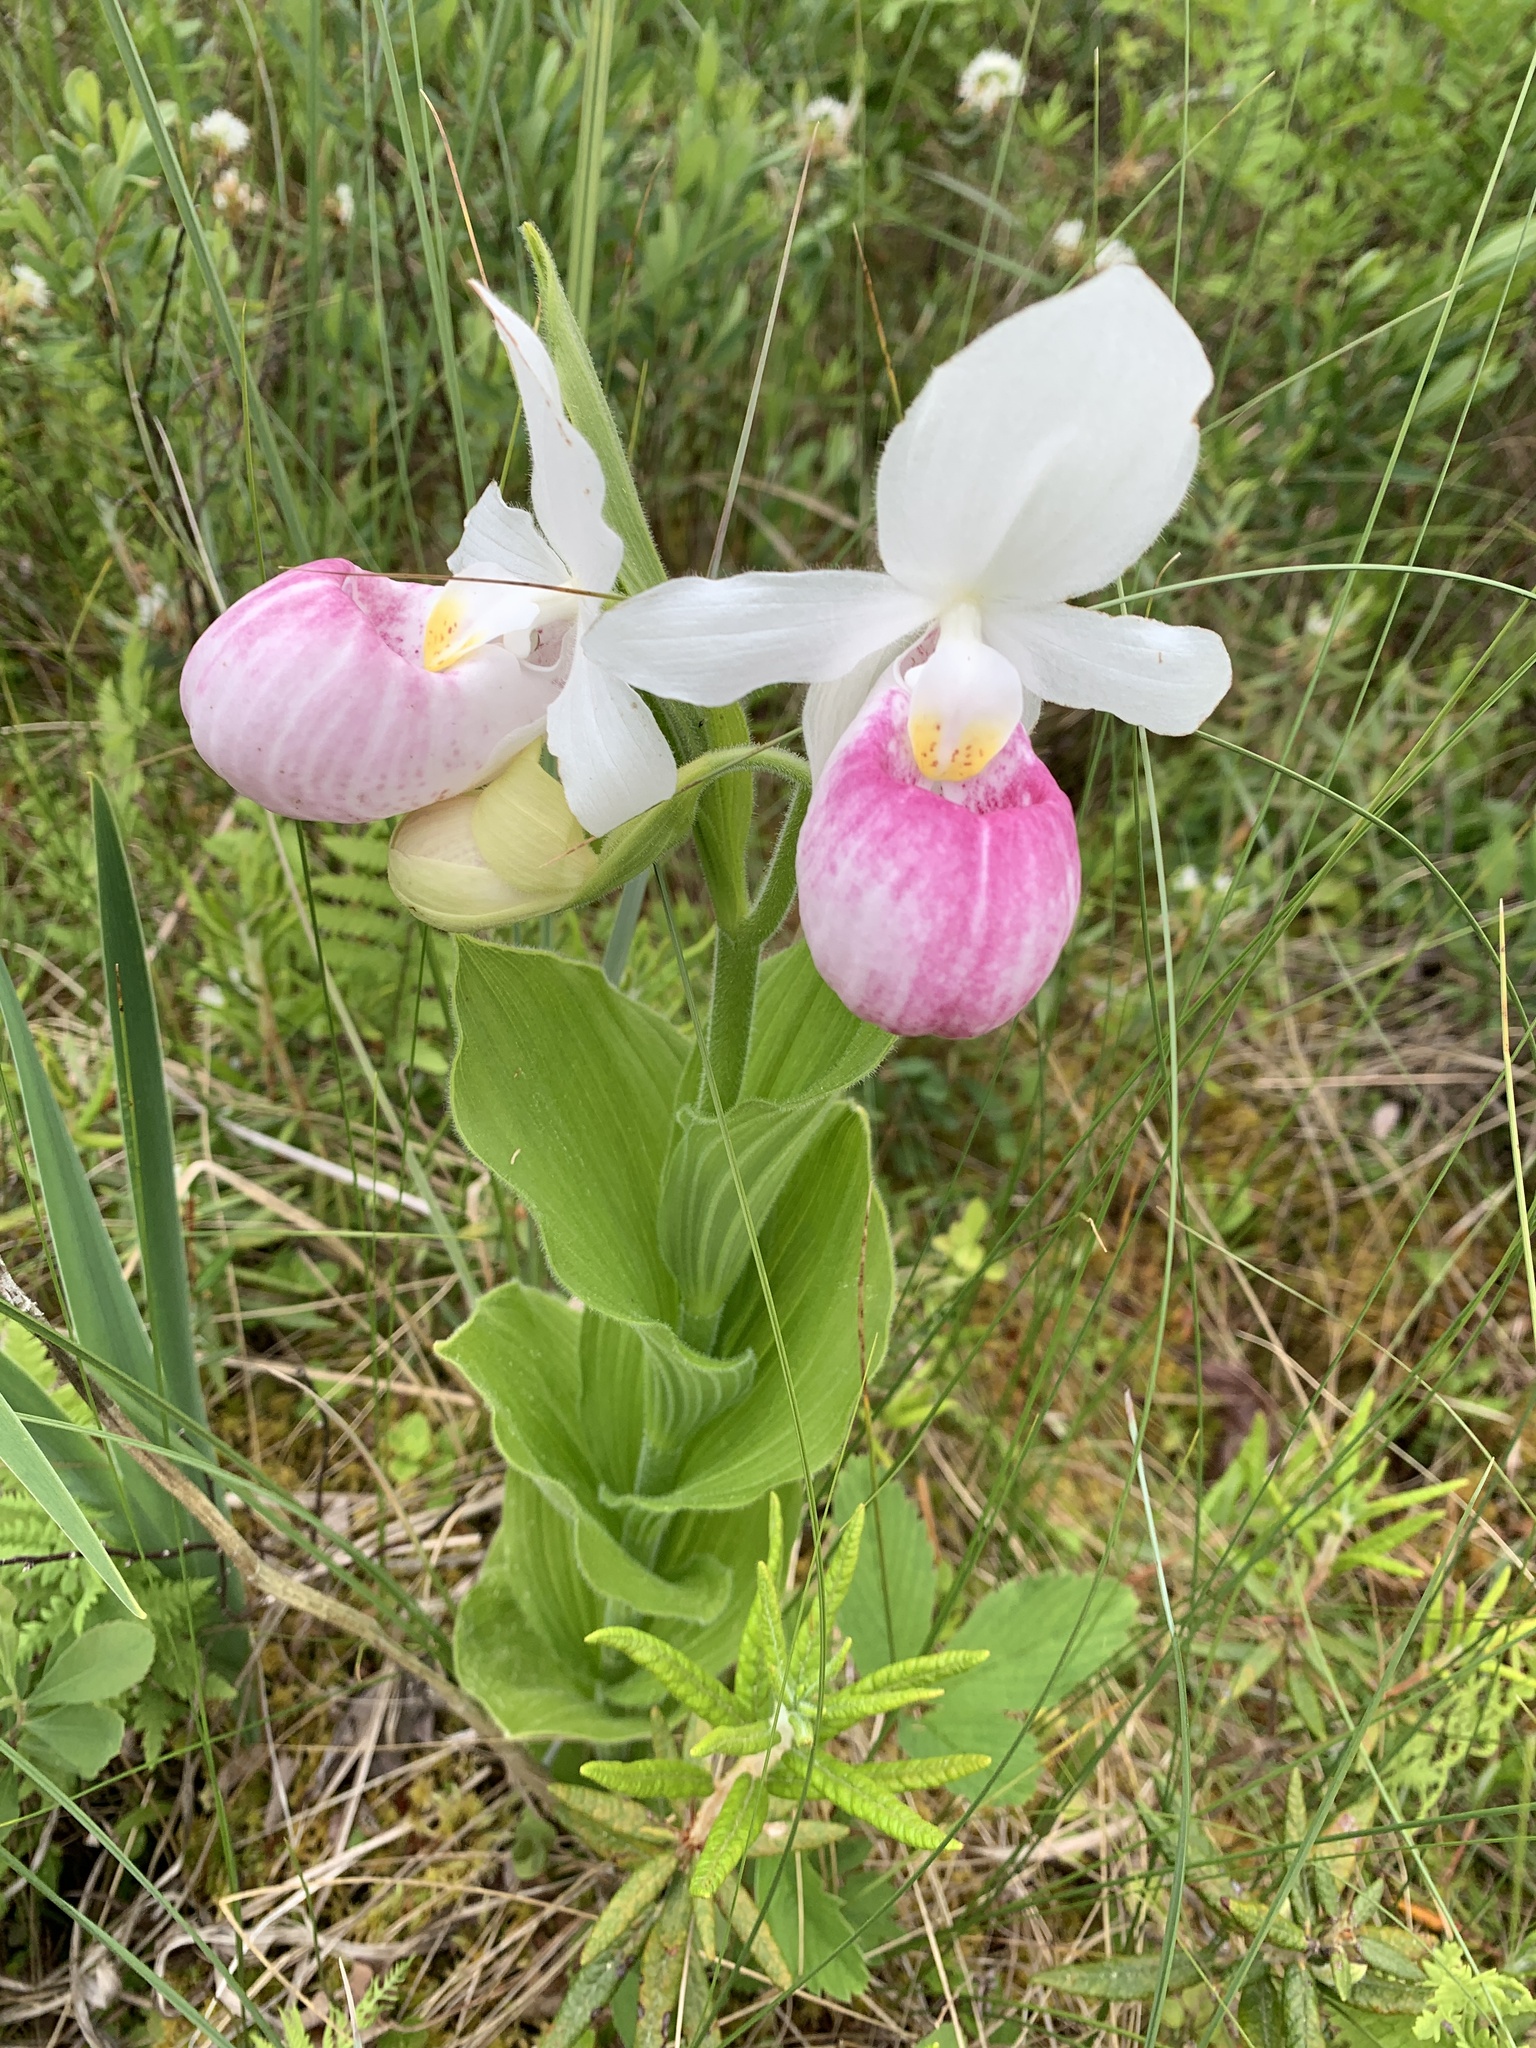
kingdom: Plantae
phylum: Tracheophyta
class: Liliopsida
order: Asparagales
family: Orchidaceae
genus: Cypripedium
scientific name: Cypripedium reginae
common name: Queen lady's-slipper
